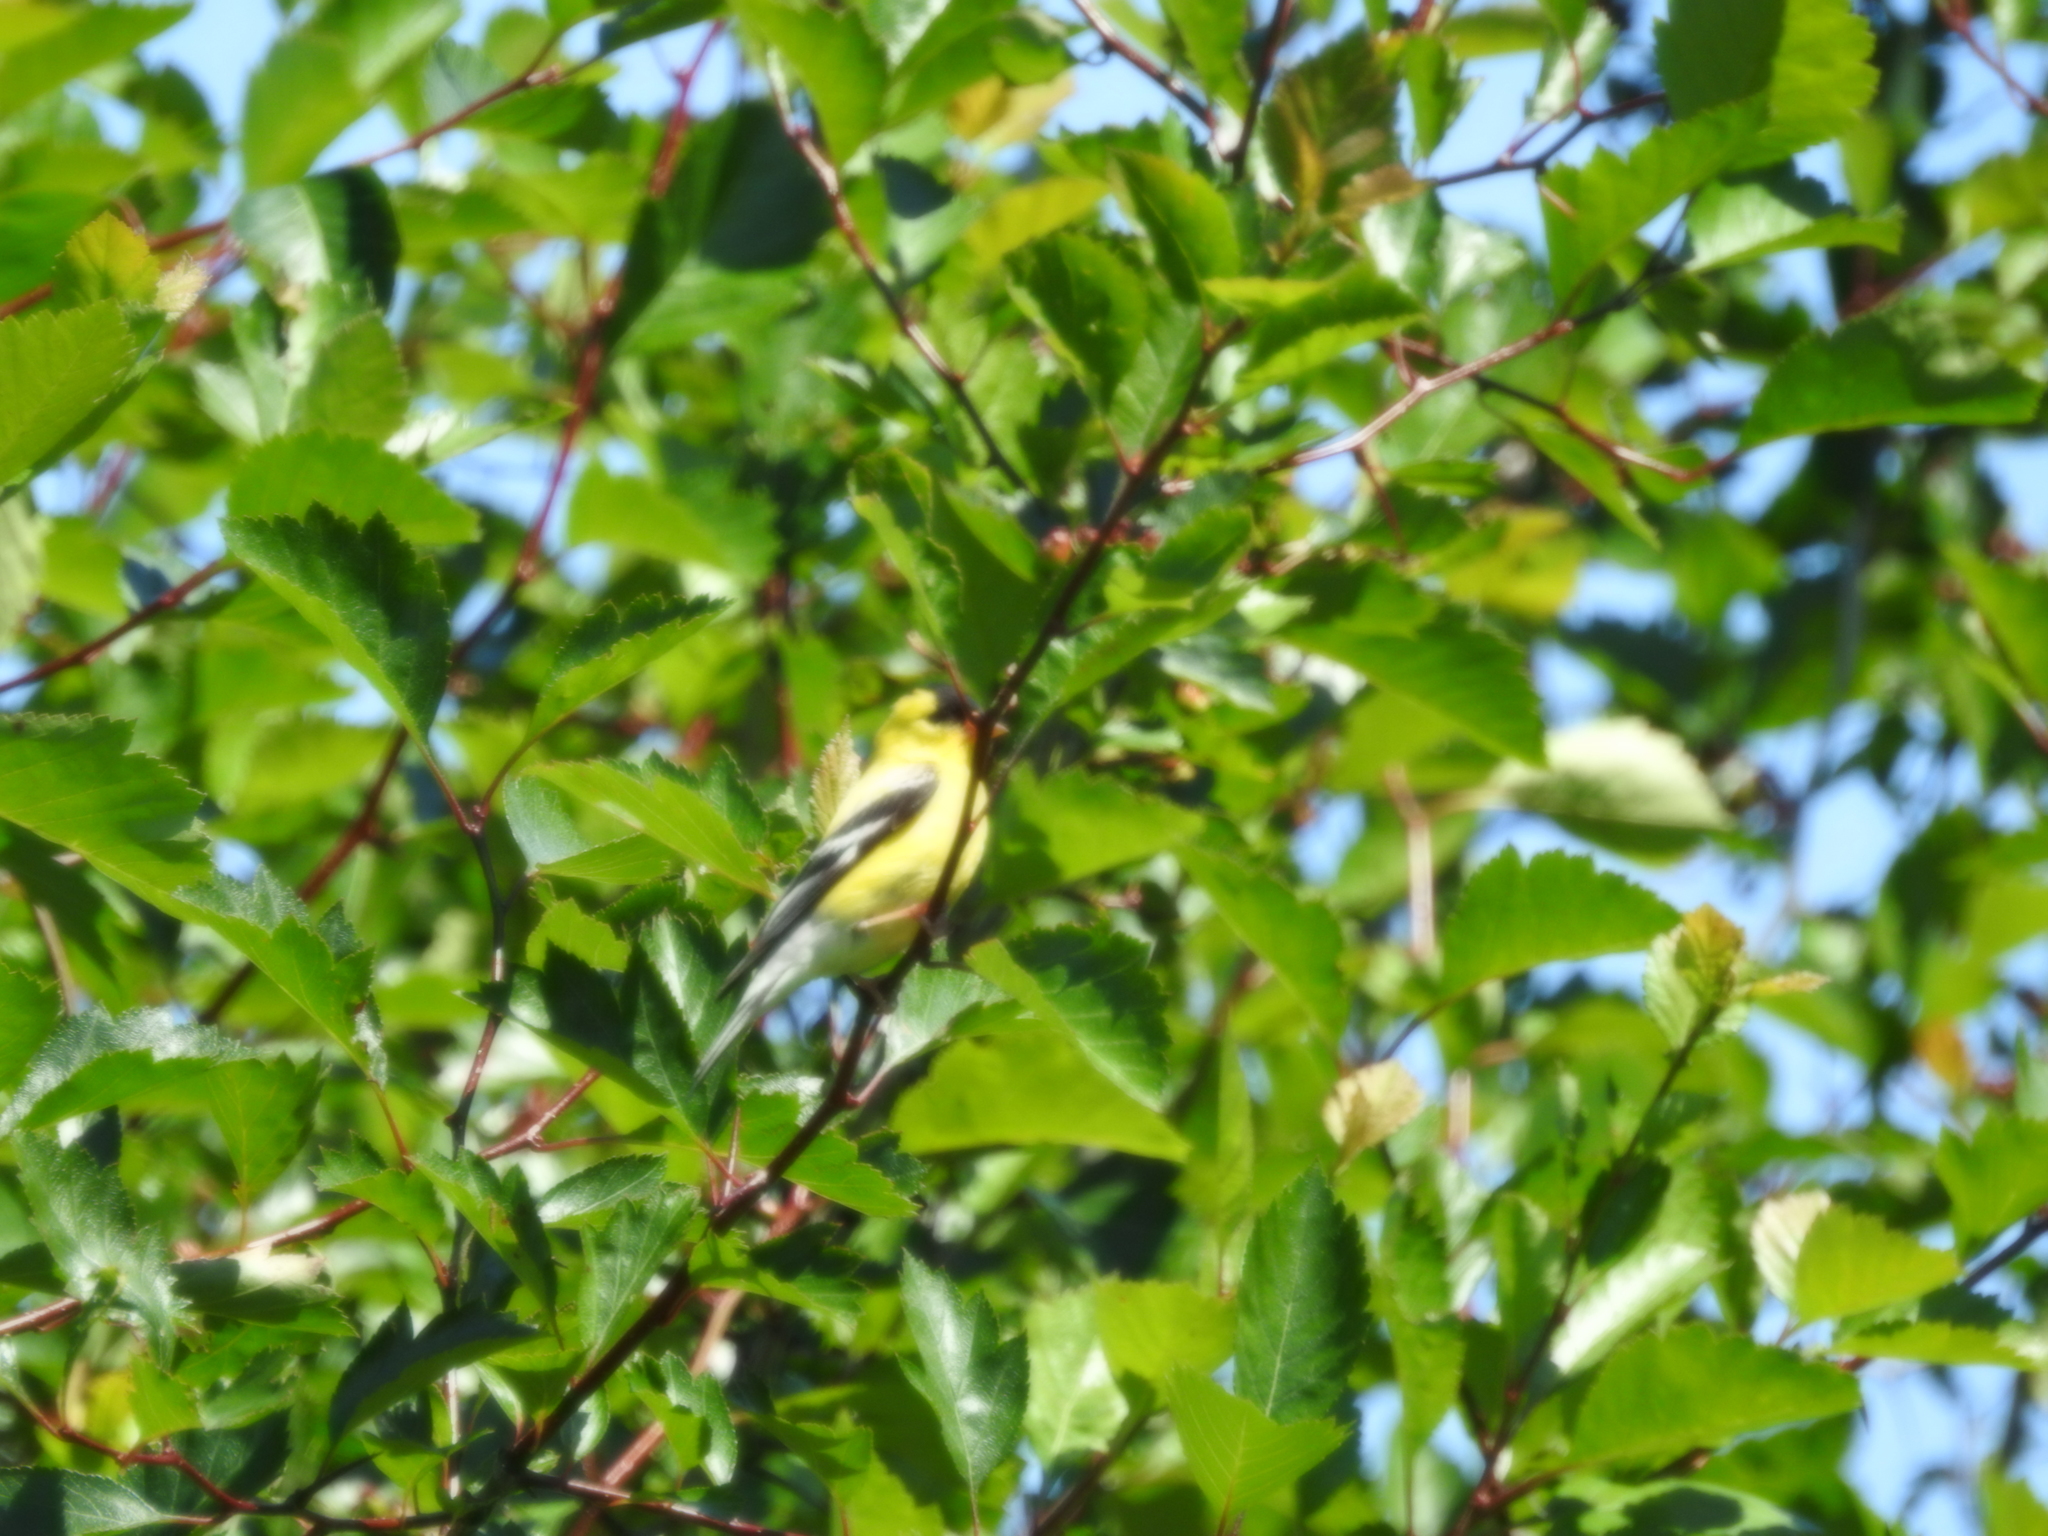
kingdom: Animalia
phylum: Chordata
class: Aves
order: Passeriformes
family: Fringillidae
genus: Spinus
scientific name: Spinus tristis
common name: American goldfinch
